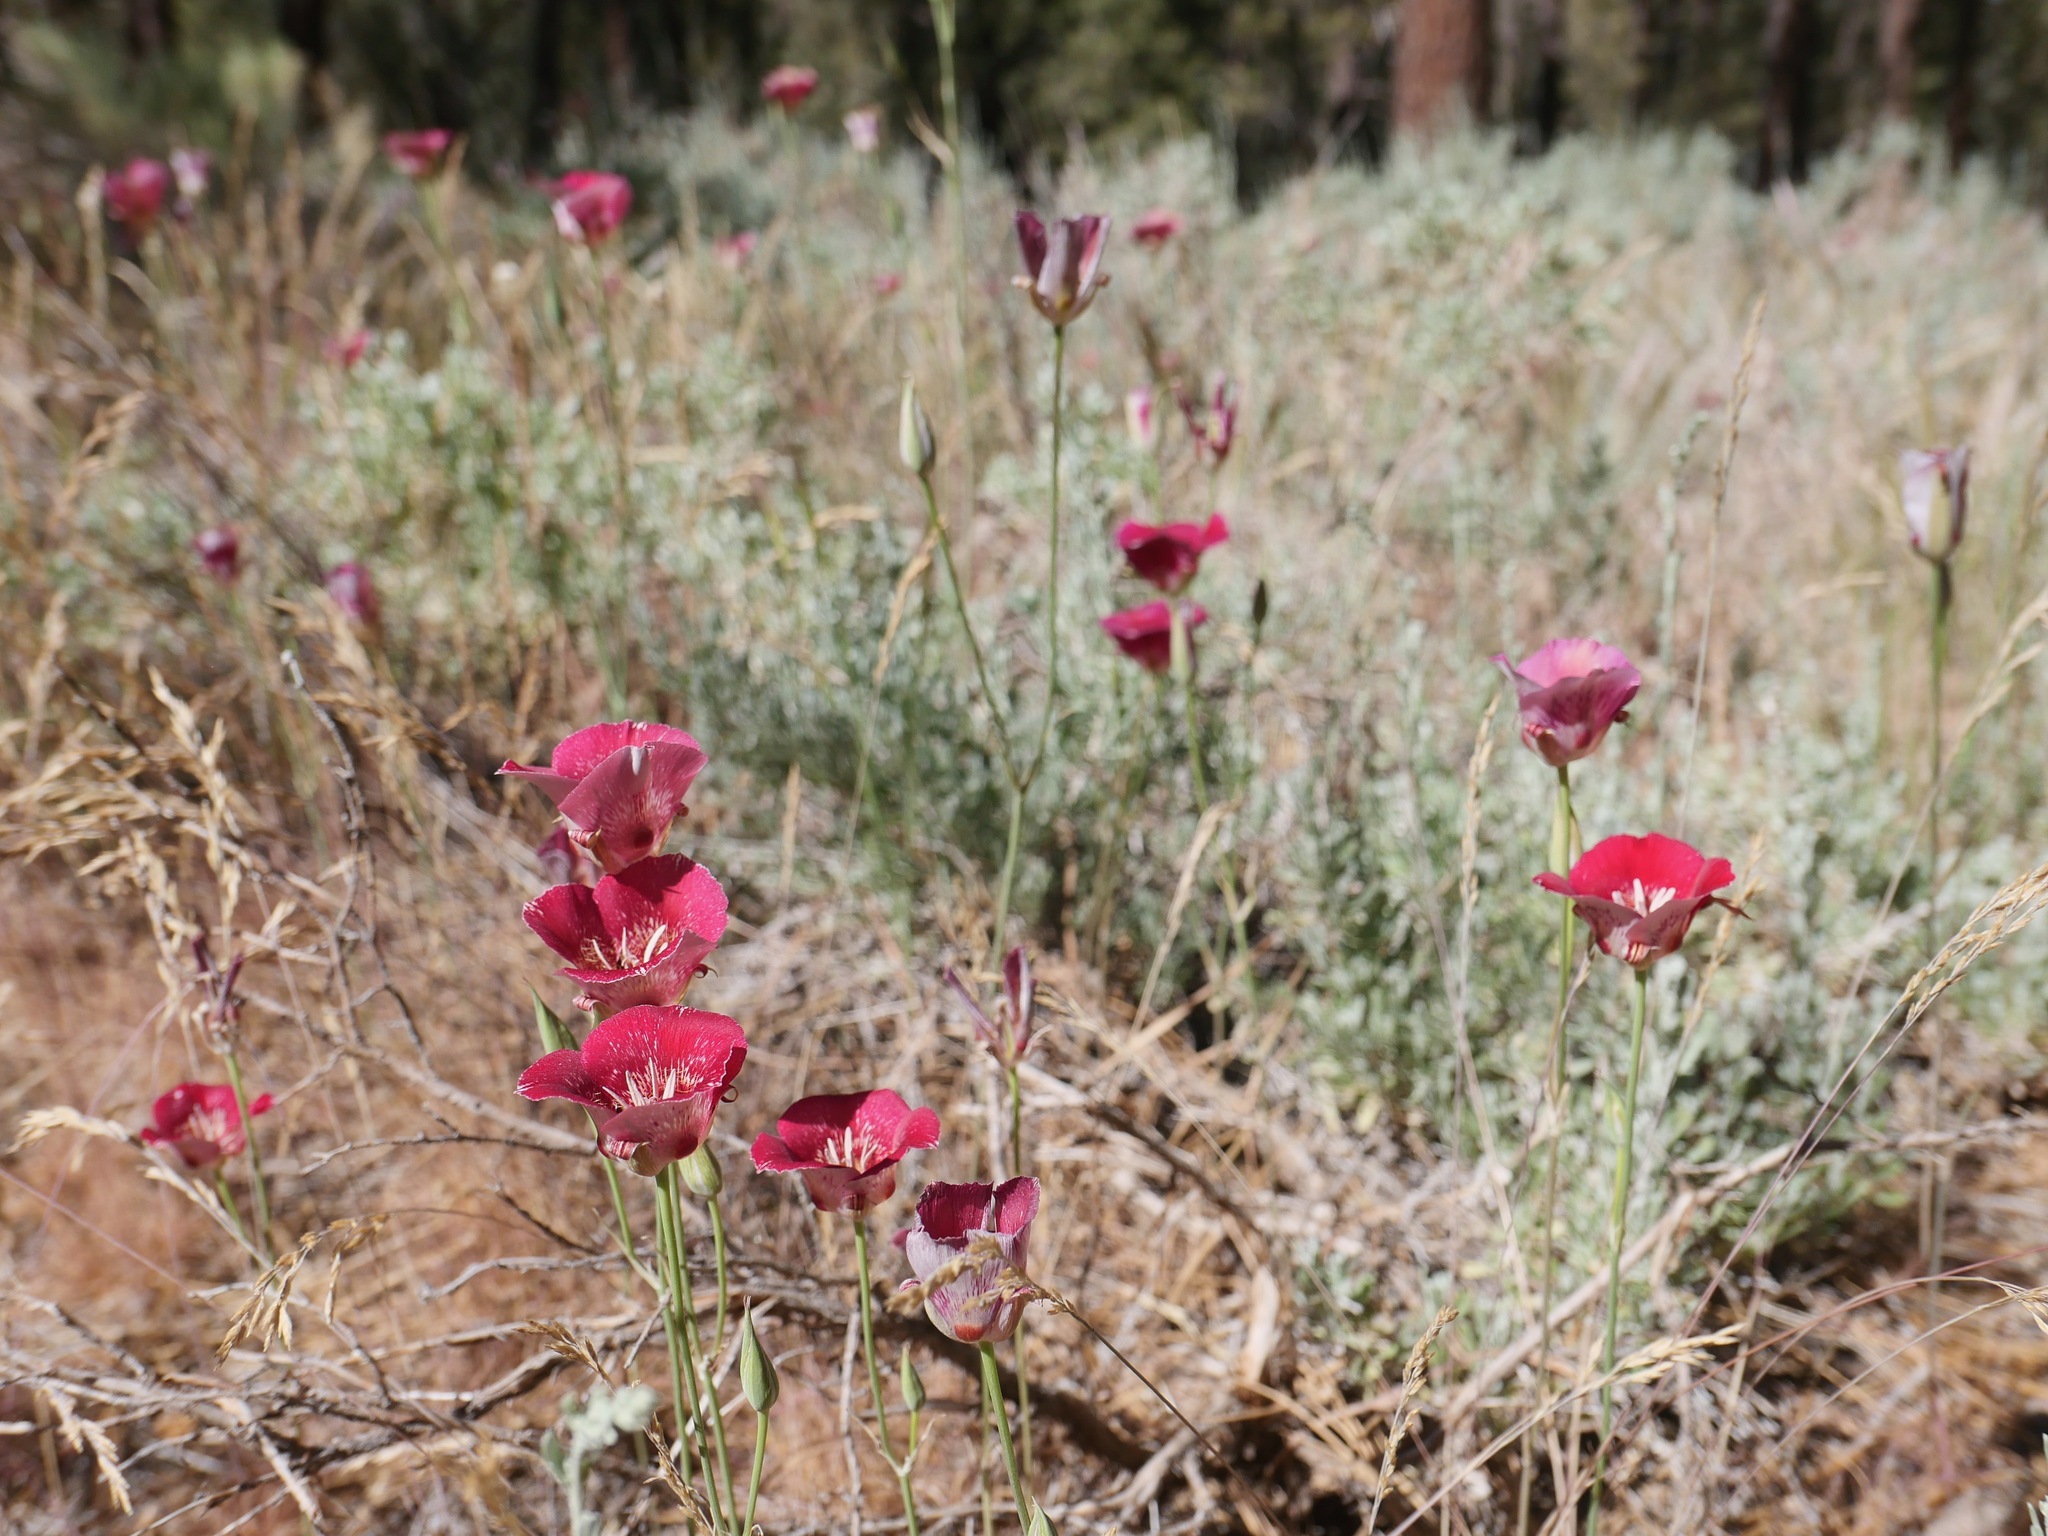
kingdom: Plantae
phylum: Tracheophyta
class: Liliopsida
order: Liliales
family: Liliaceae
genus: Calochortus
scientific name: Calochortus venustus
